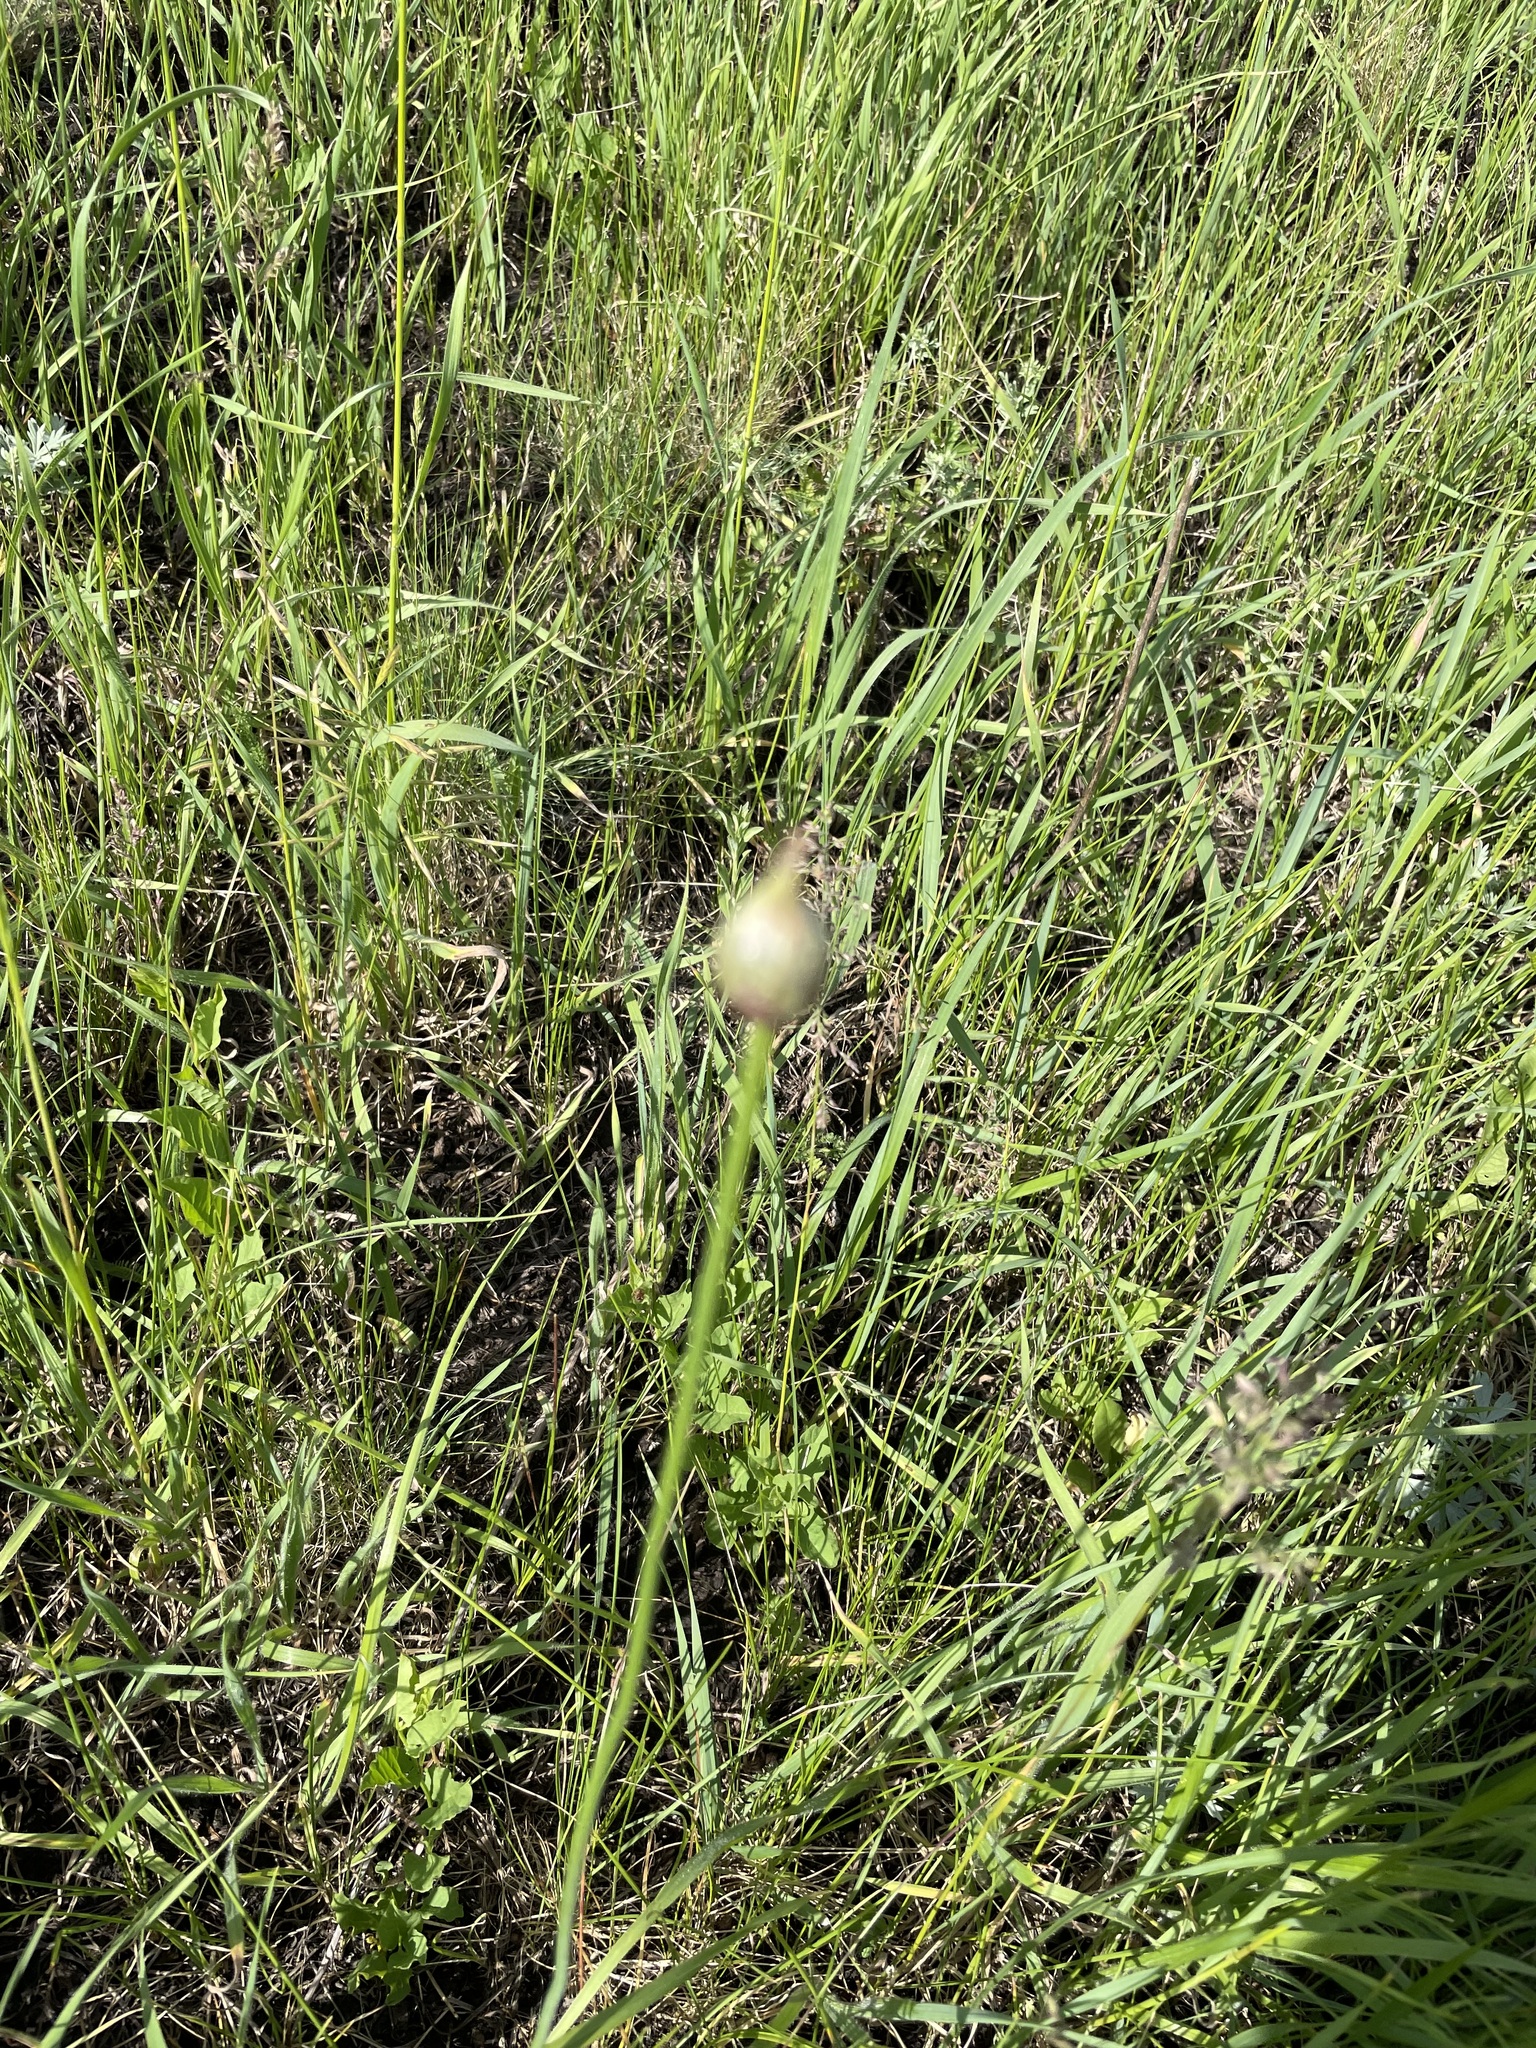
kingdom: Plantae
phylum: Tracheophyta
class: Liliopsida
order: Asparagales
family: Amaryllidaceae
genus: Allium
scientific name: Allium rotundum
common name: Sand leek
